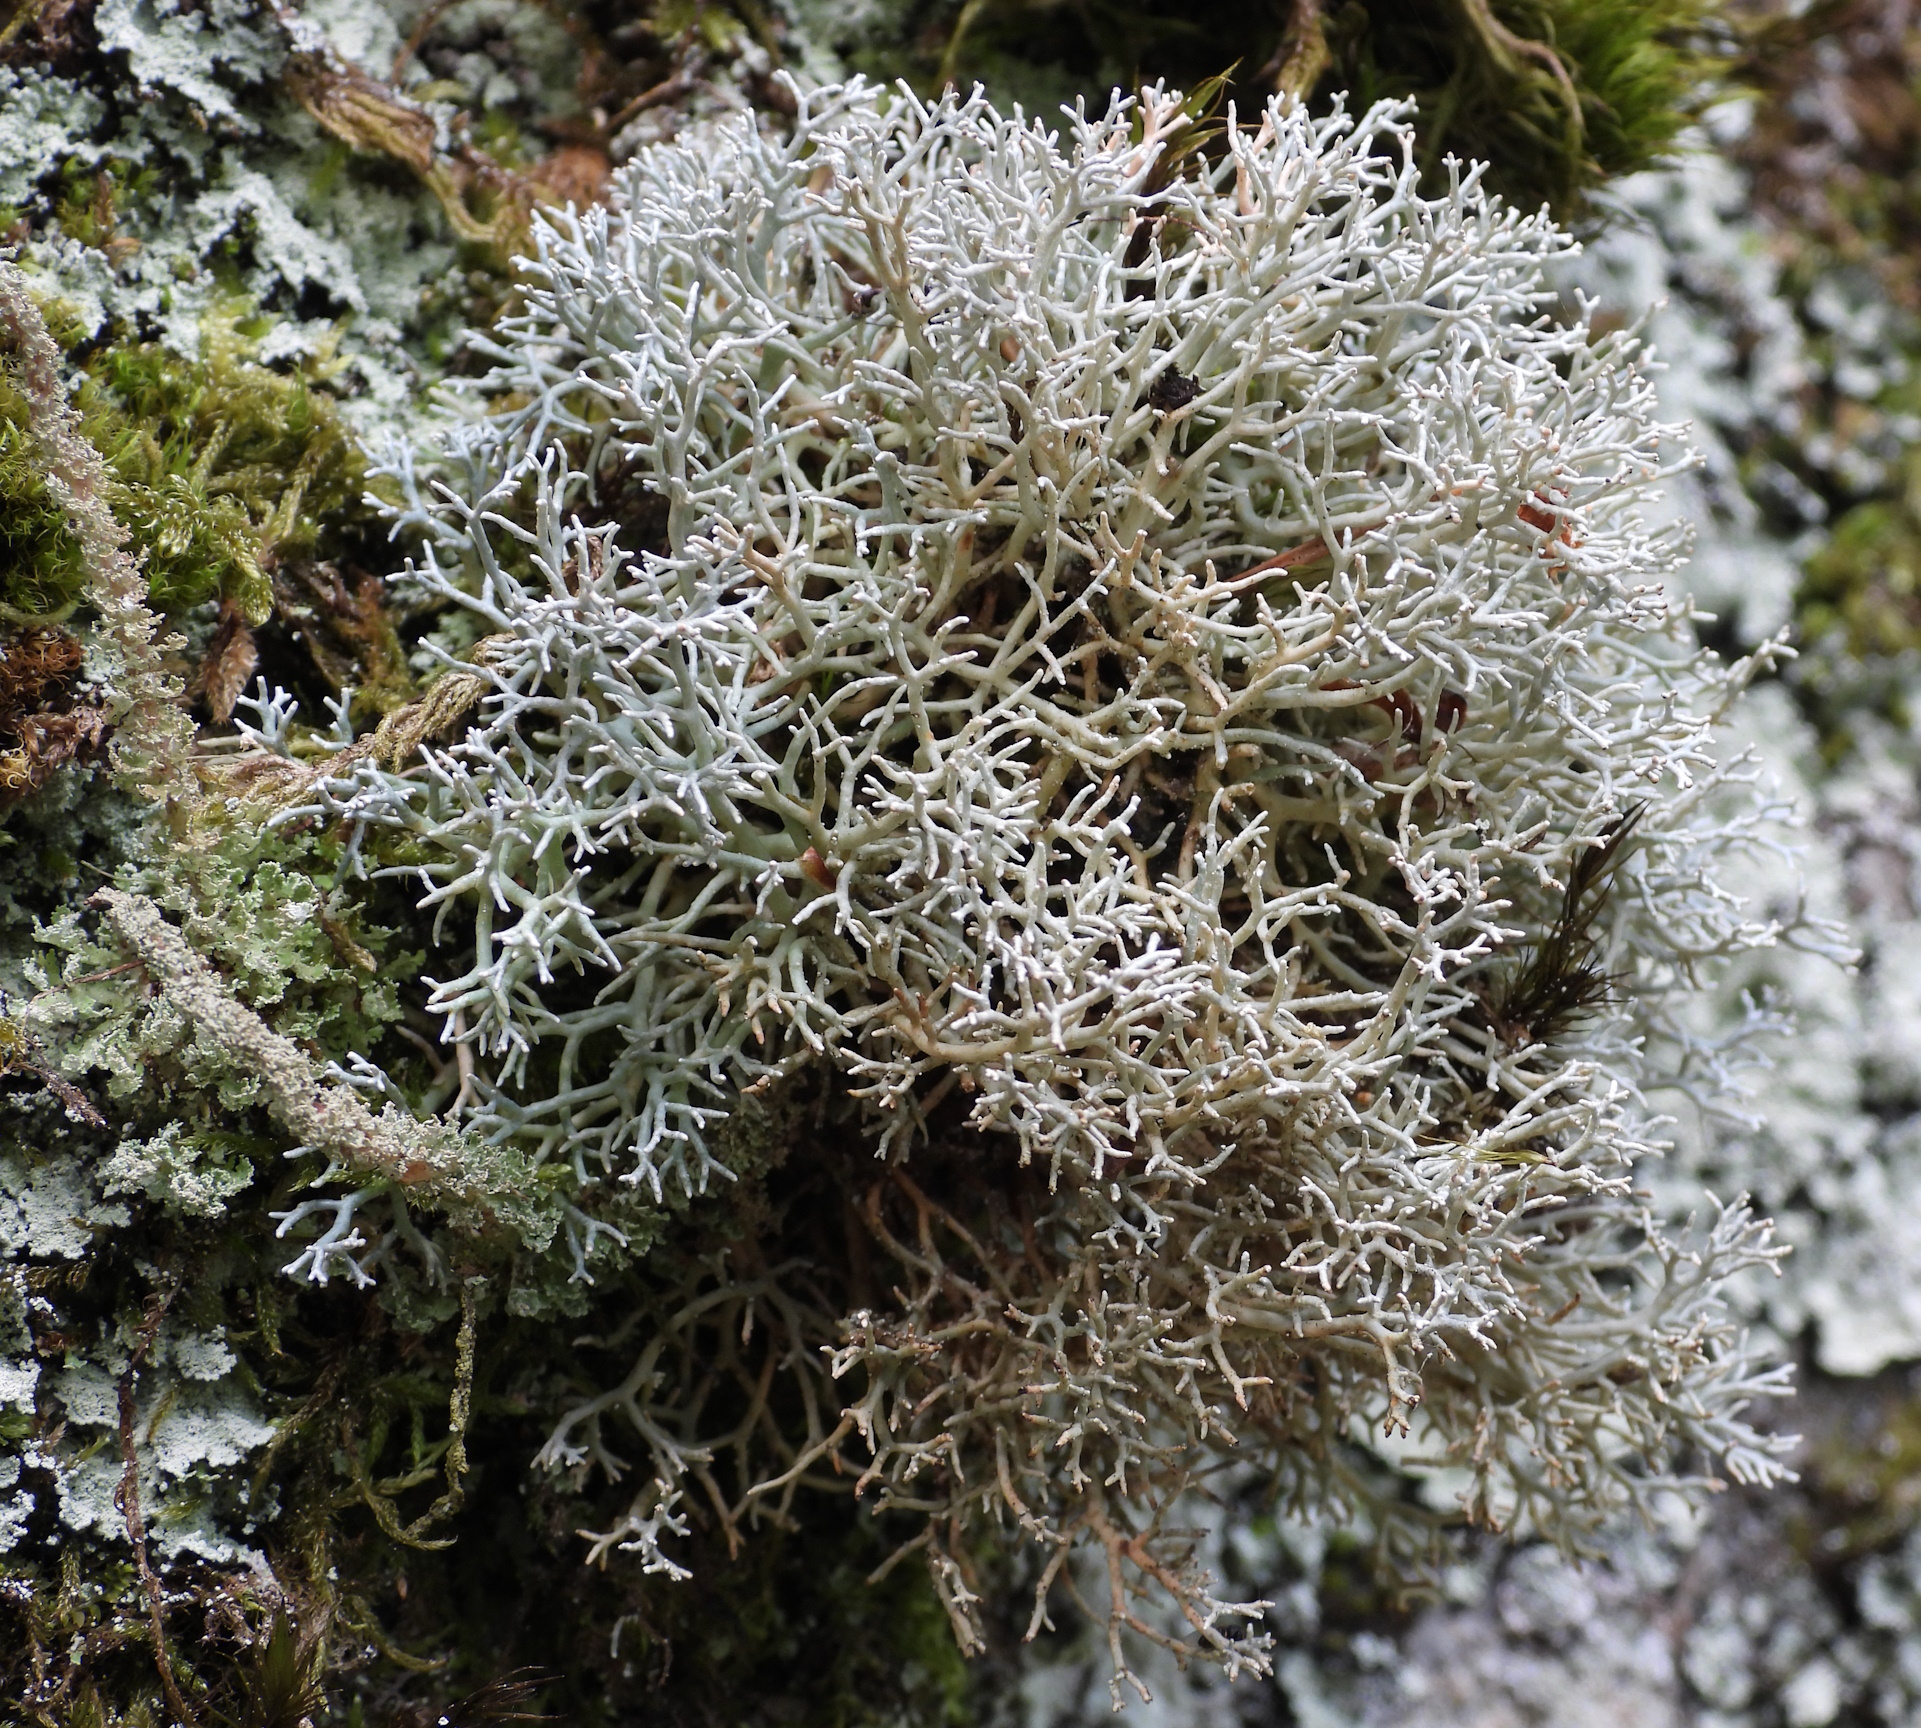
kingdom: Fungi
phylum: Ascomycota
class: Lecanoromycetes
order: Lecanorales
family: Sphaerophoraceae
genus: Sphaerophorus
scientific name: Sphaerophorus fragilis
